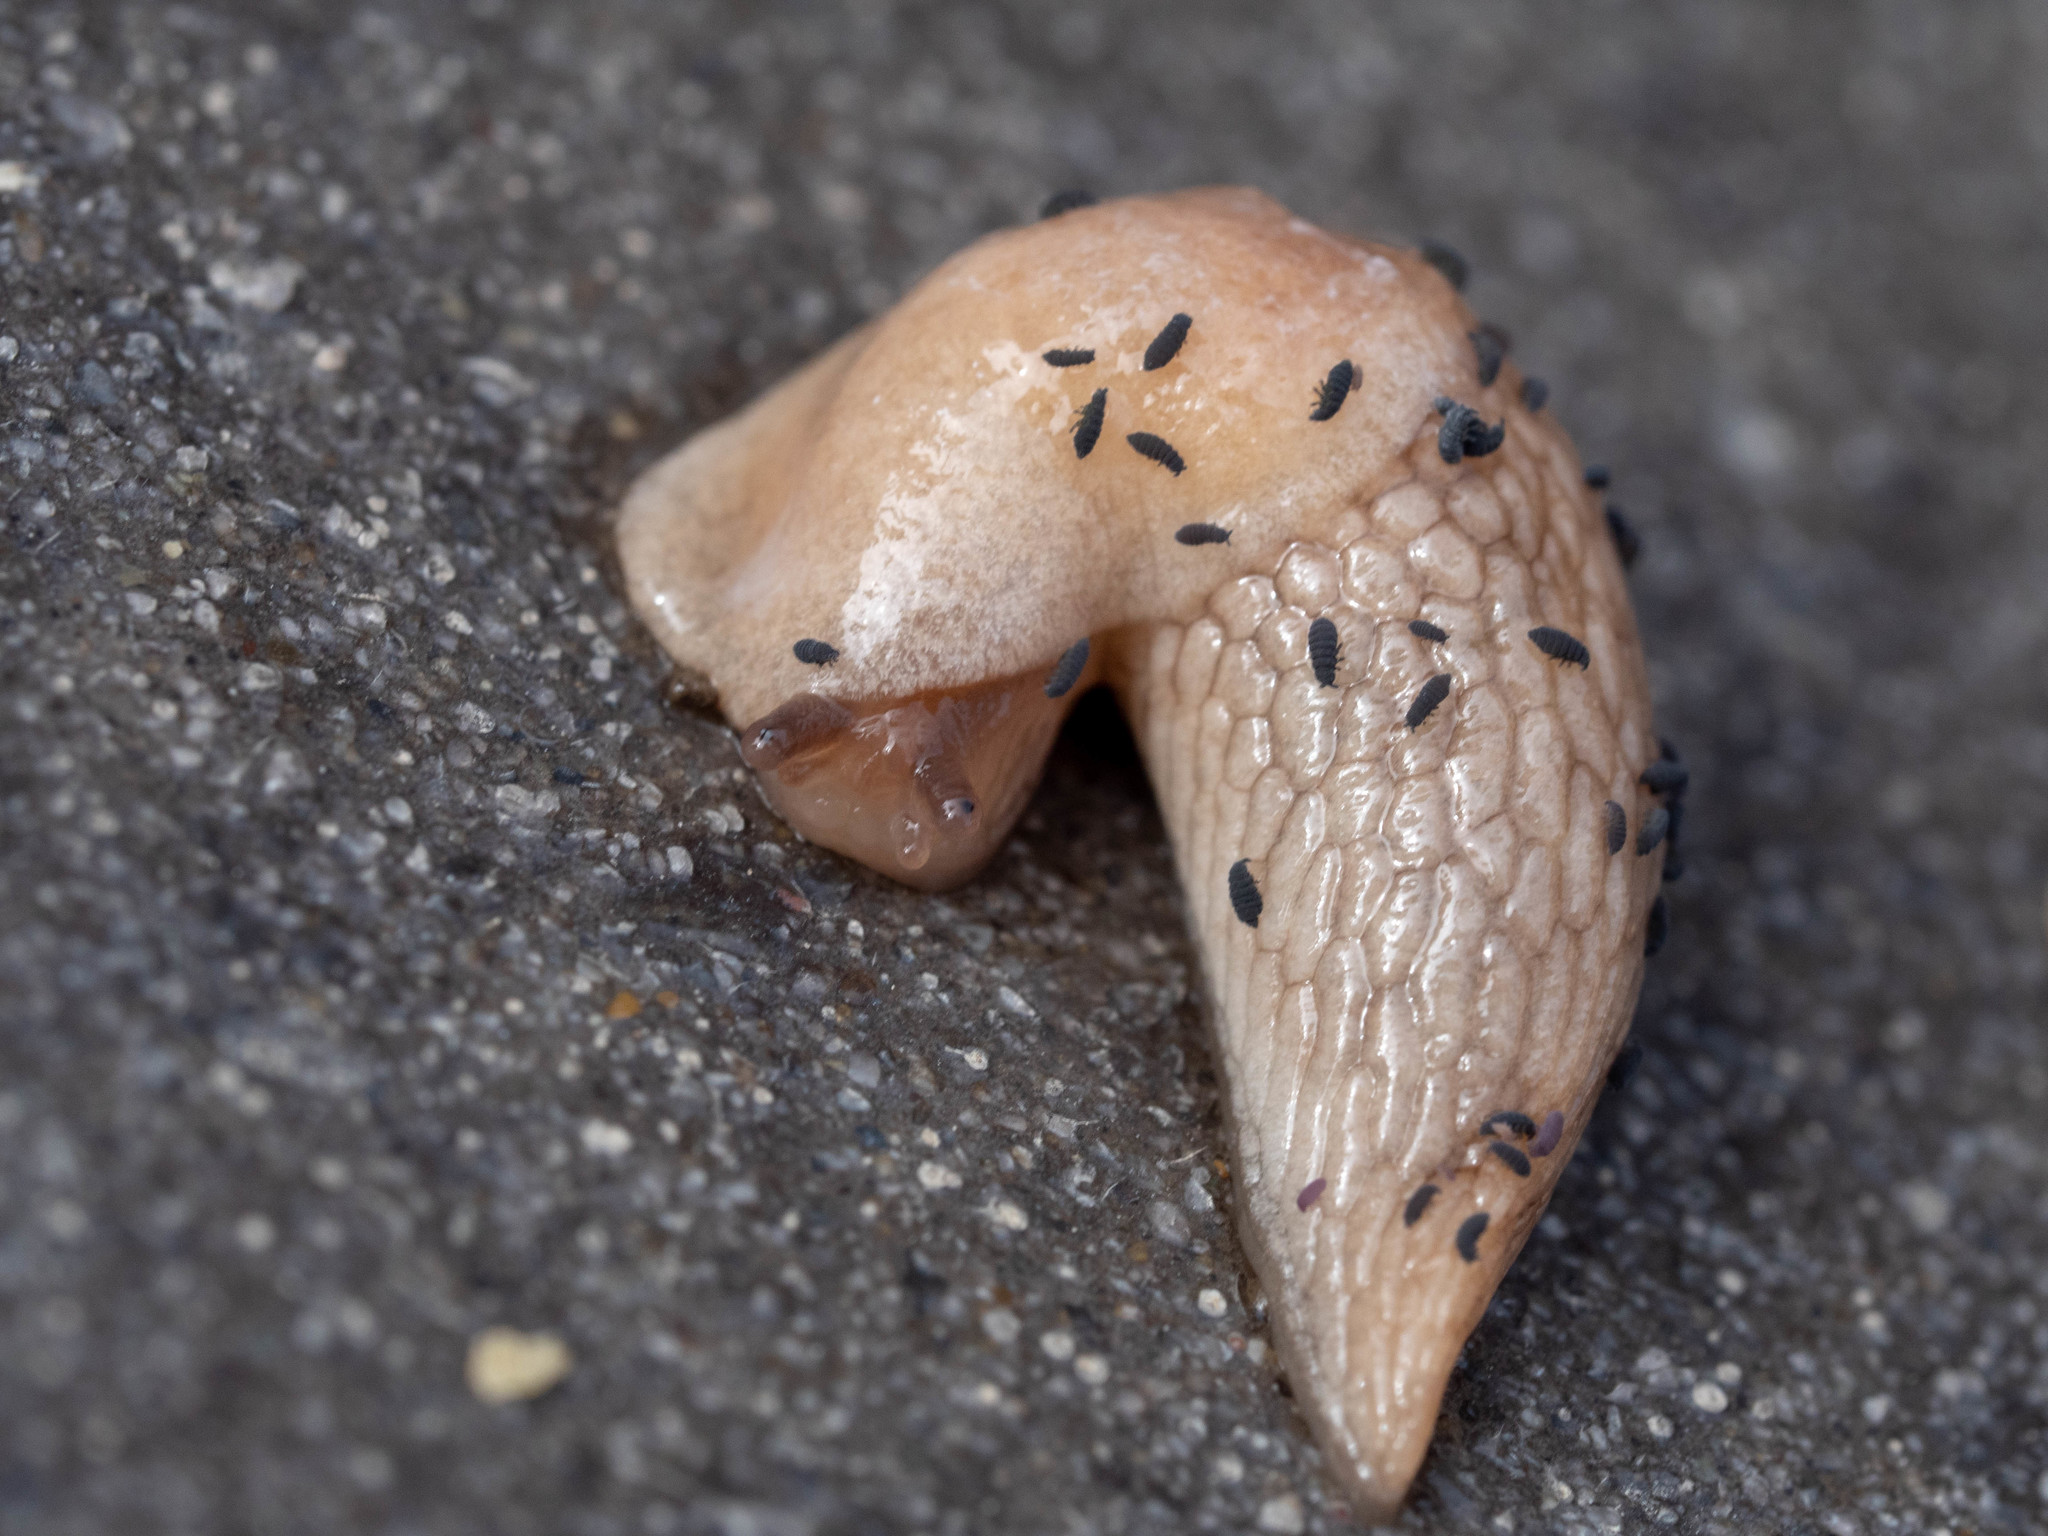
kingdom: Animalia
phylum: Mollusca
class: Gastropoda
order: Stylommatophora
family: Agriolimacidae
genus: Deroceras
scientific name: Deroceras reticulatum
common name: Gray field slug
